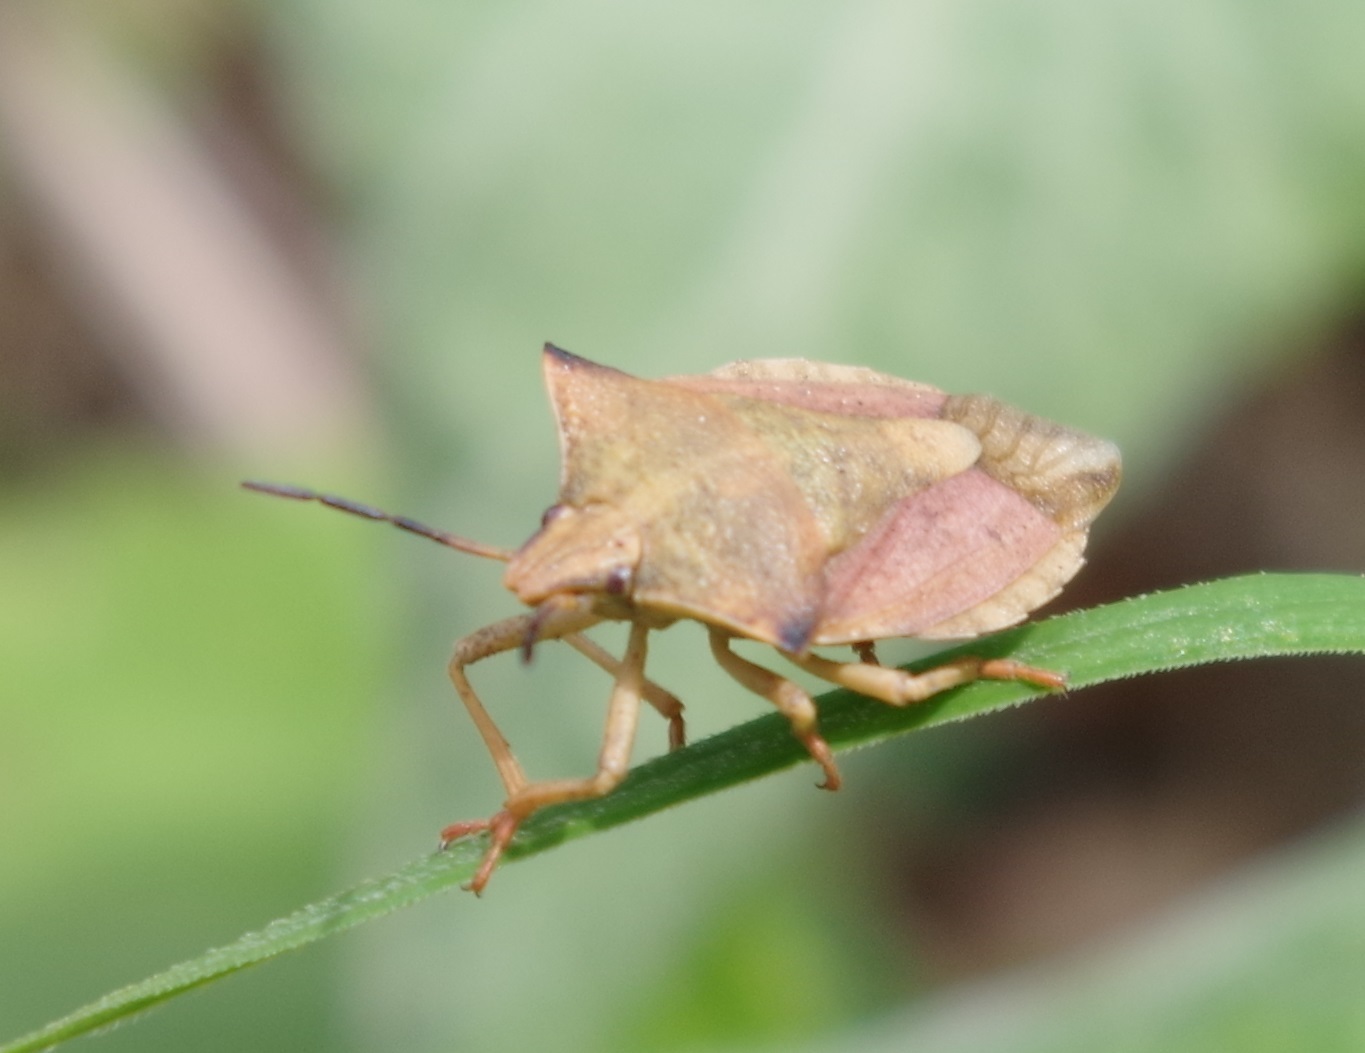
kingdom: Animalia
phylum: Arthropoda
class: Insecta
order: Hemiptera
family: Pentatomidae
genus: Carpocoris
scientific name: Carpocoris fuscispinus
